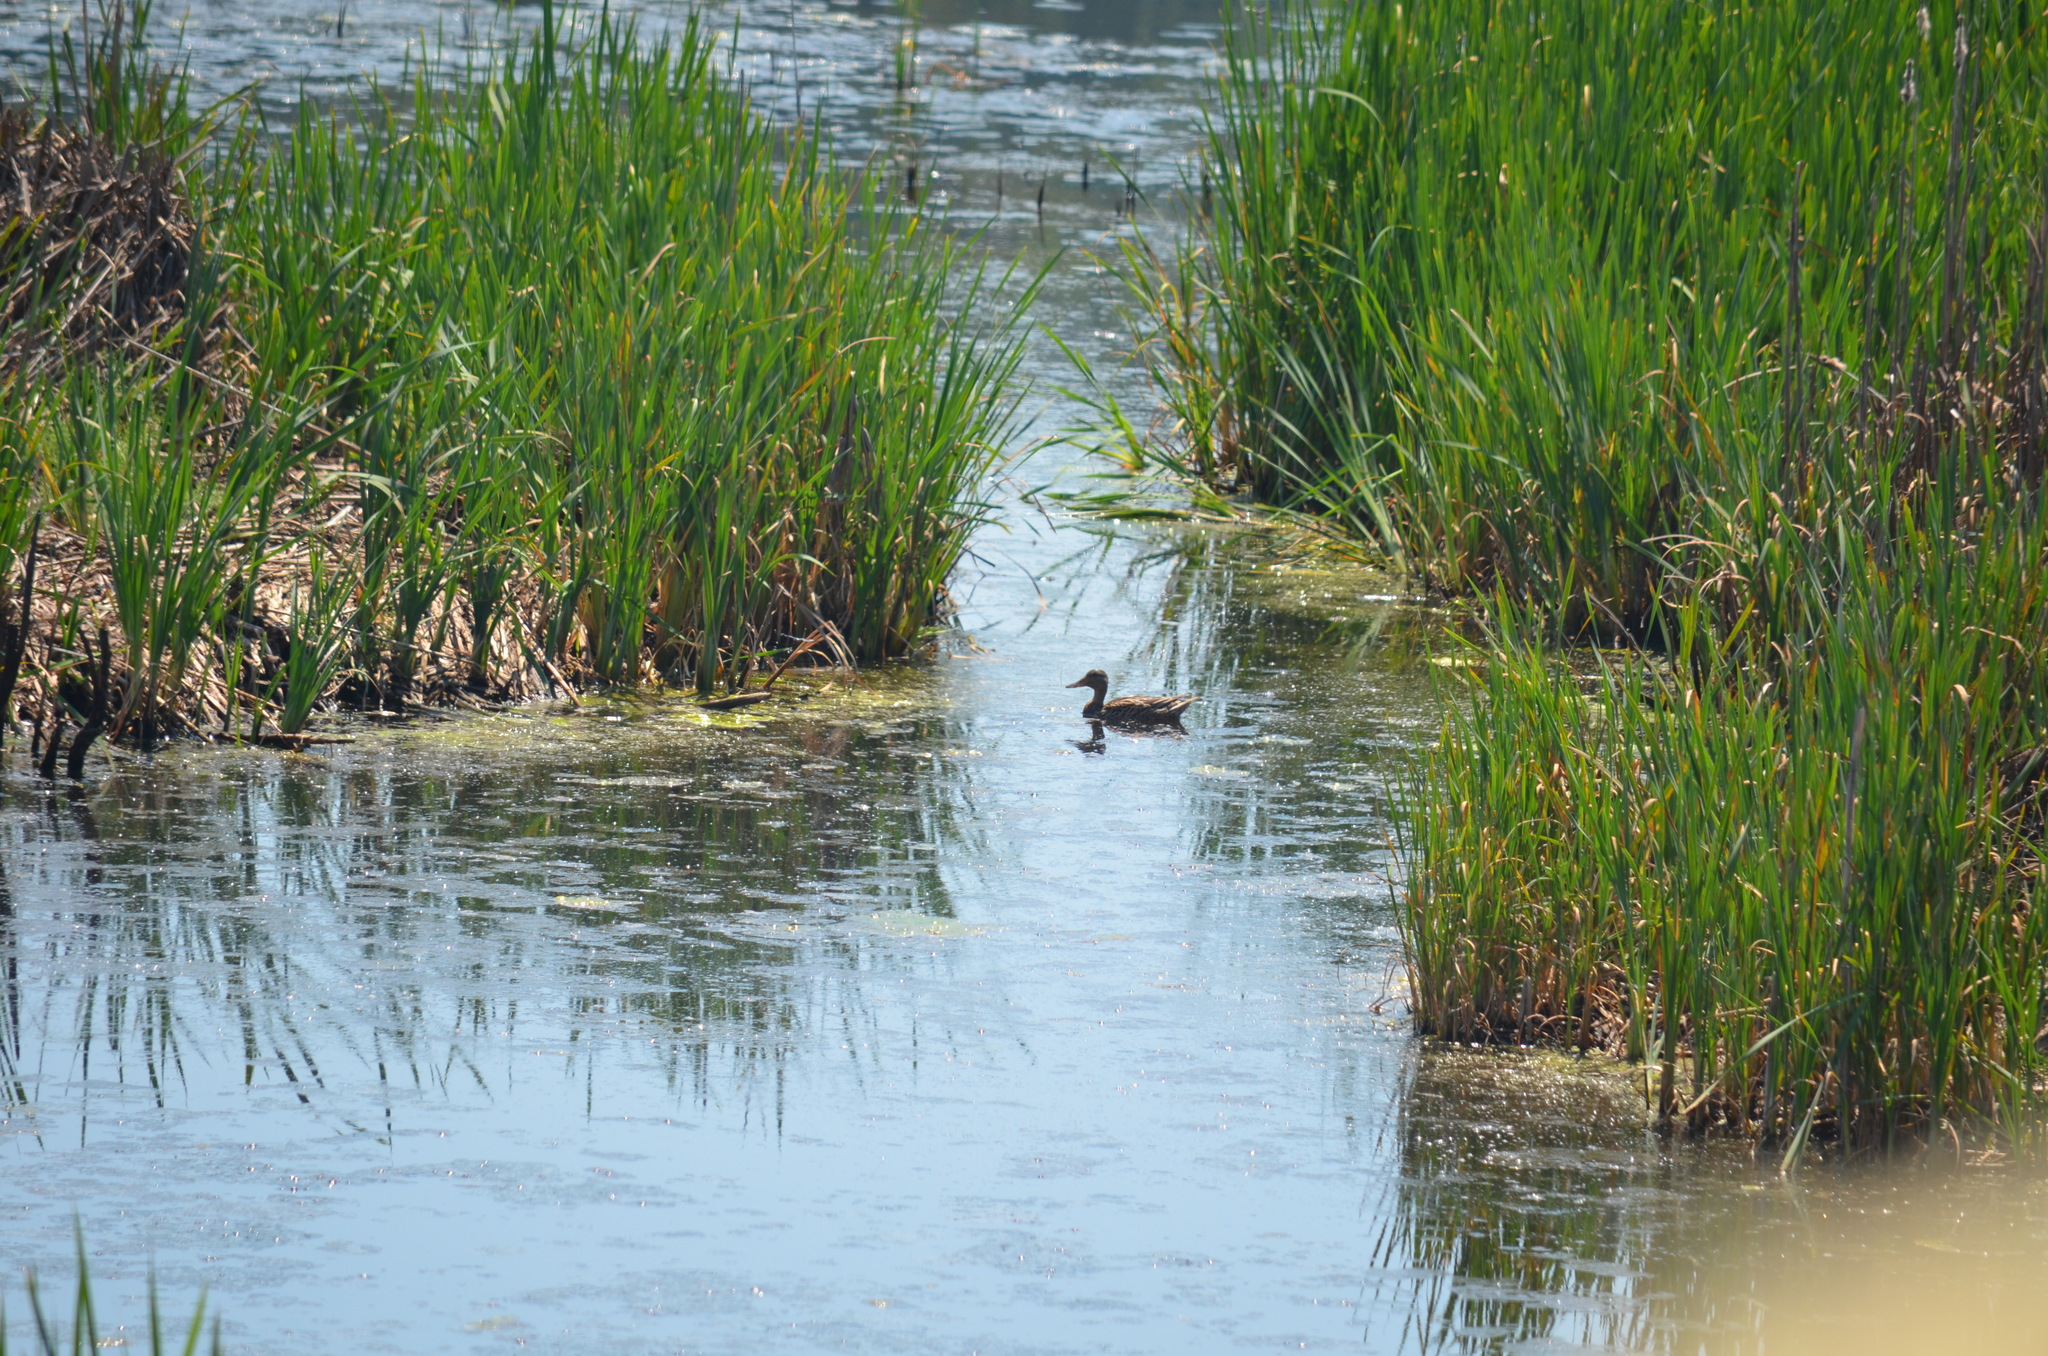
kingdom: Animalia
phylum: Chordata
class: Aves
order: Anseriformes
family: Anatidae
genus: Anas
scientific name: Anas platyrhynchos
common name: Mallard
